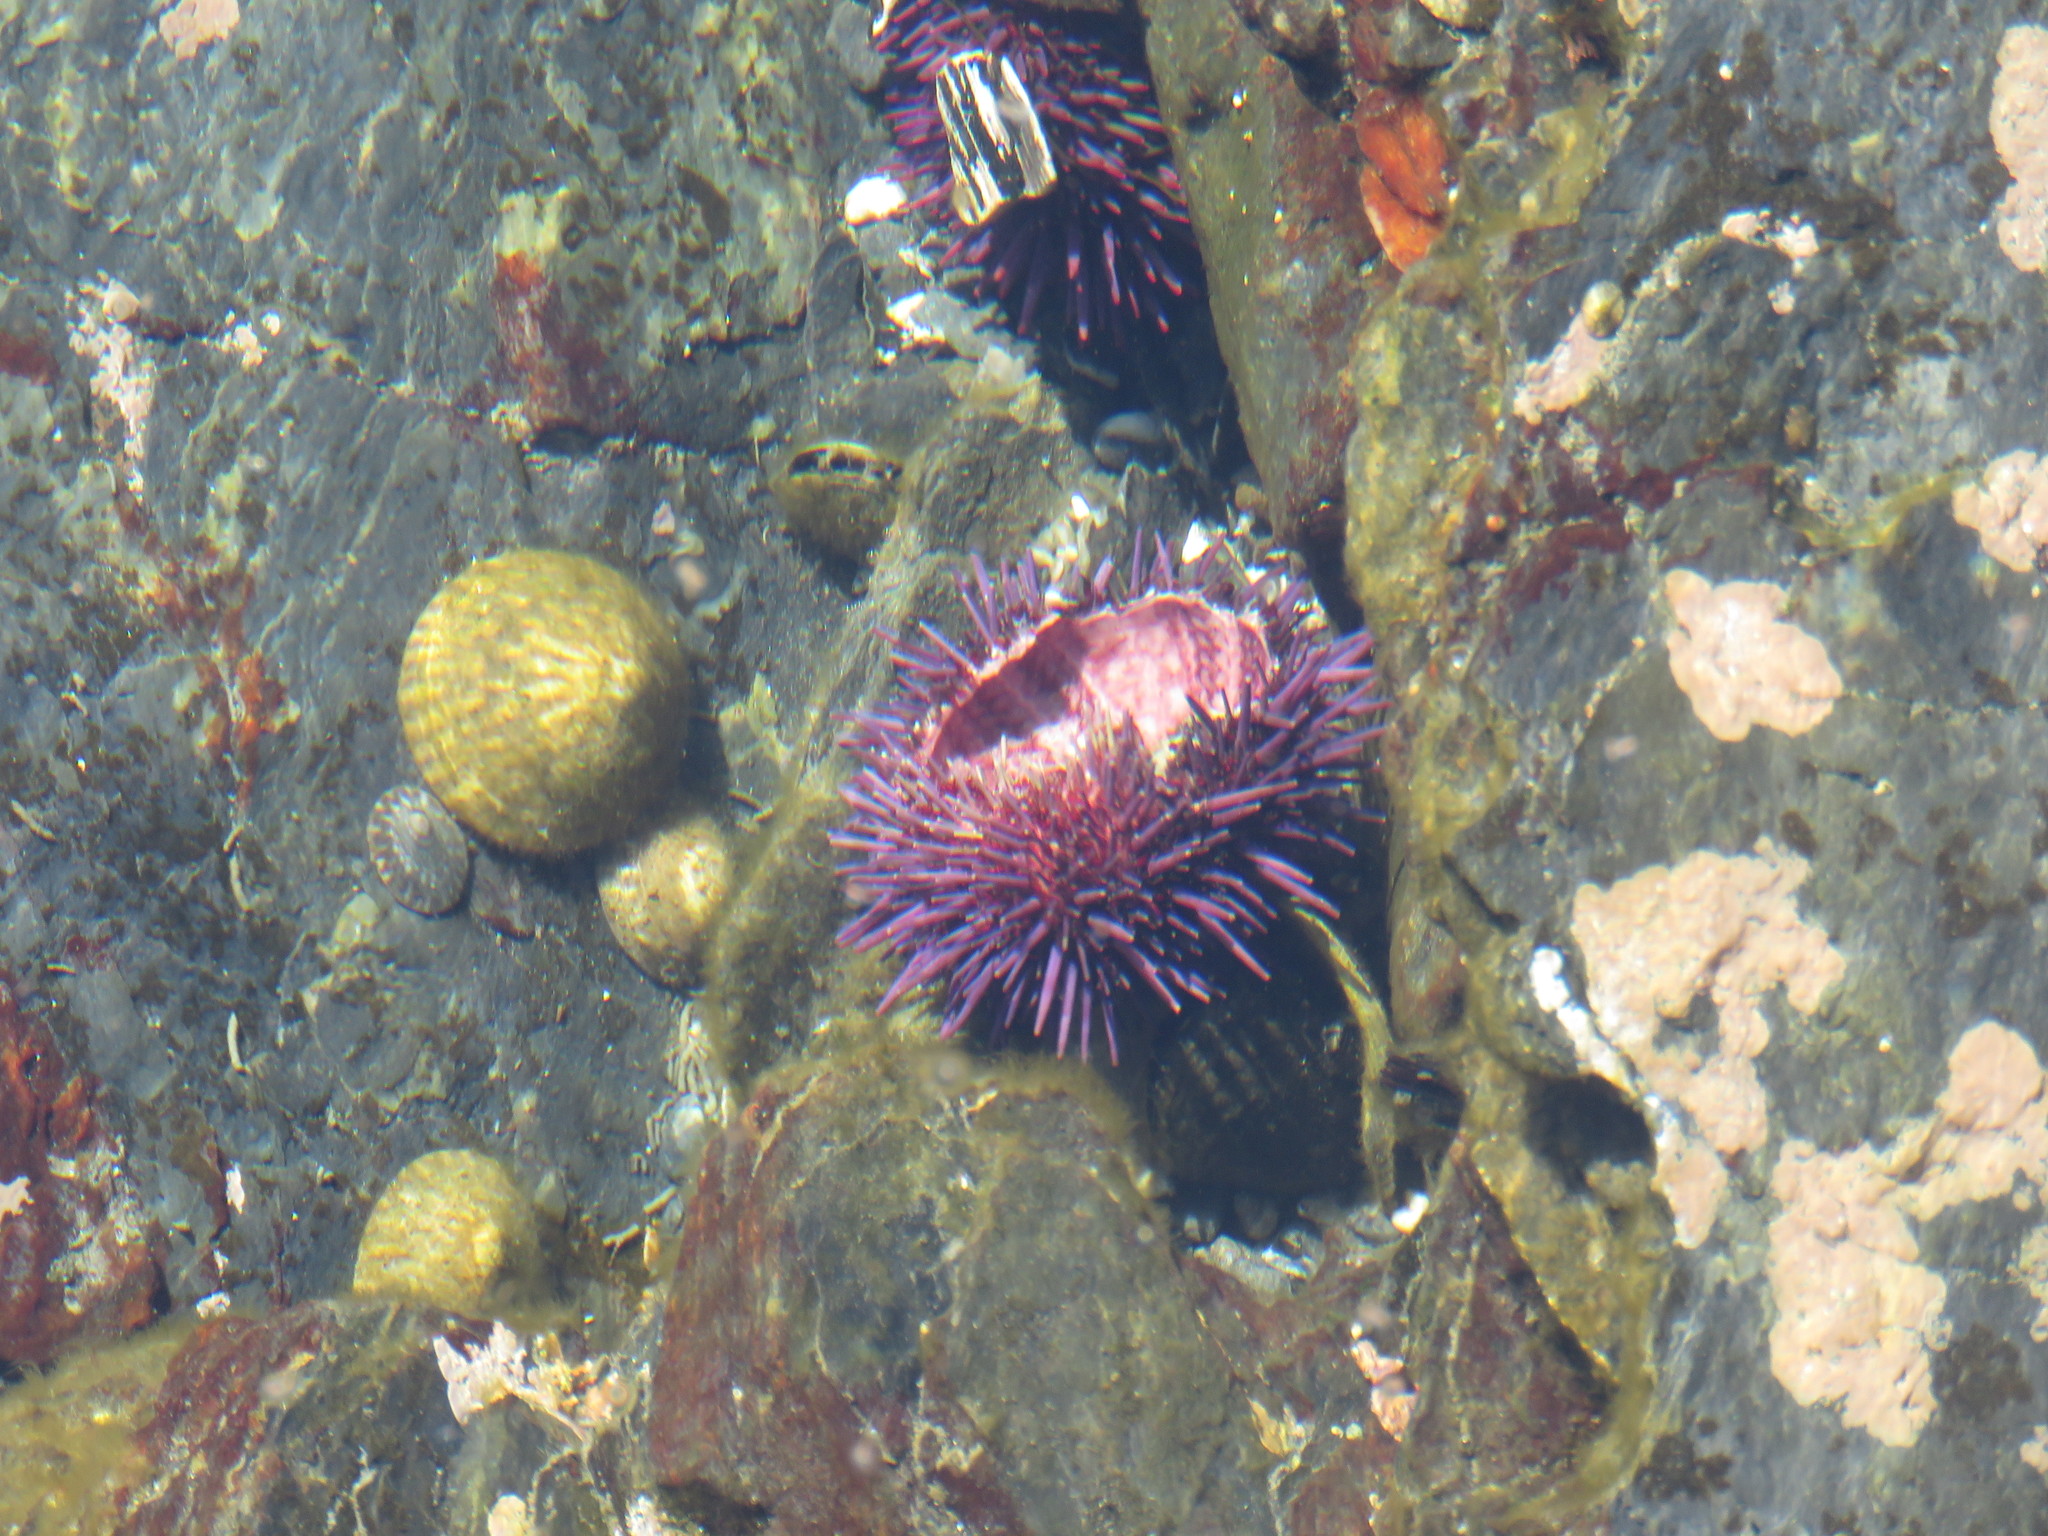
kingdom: Animalia
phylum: Echinodermata
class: Echinoidea
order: Camarodonta
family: Strongylocentrotidae
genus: Strongylocentrotus
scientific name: Strongylocentrotus purpuratus
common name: Purple sea urchin
